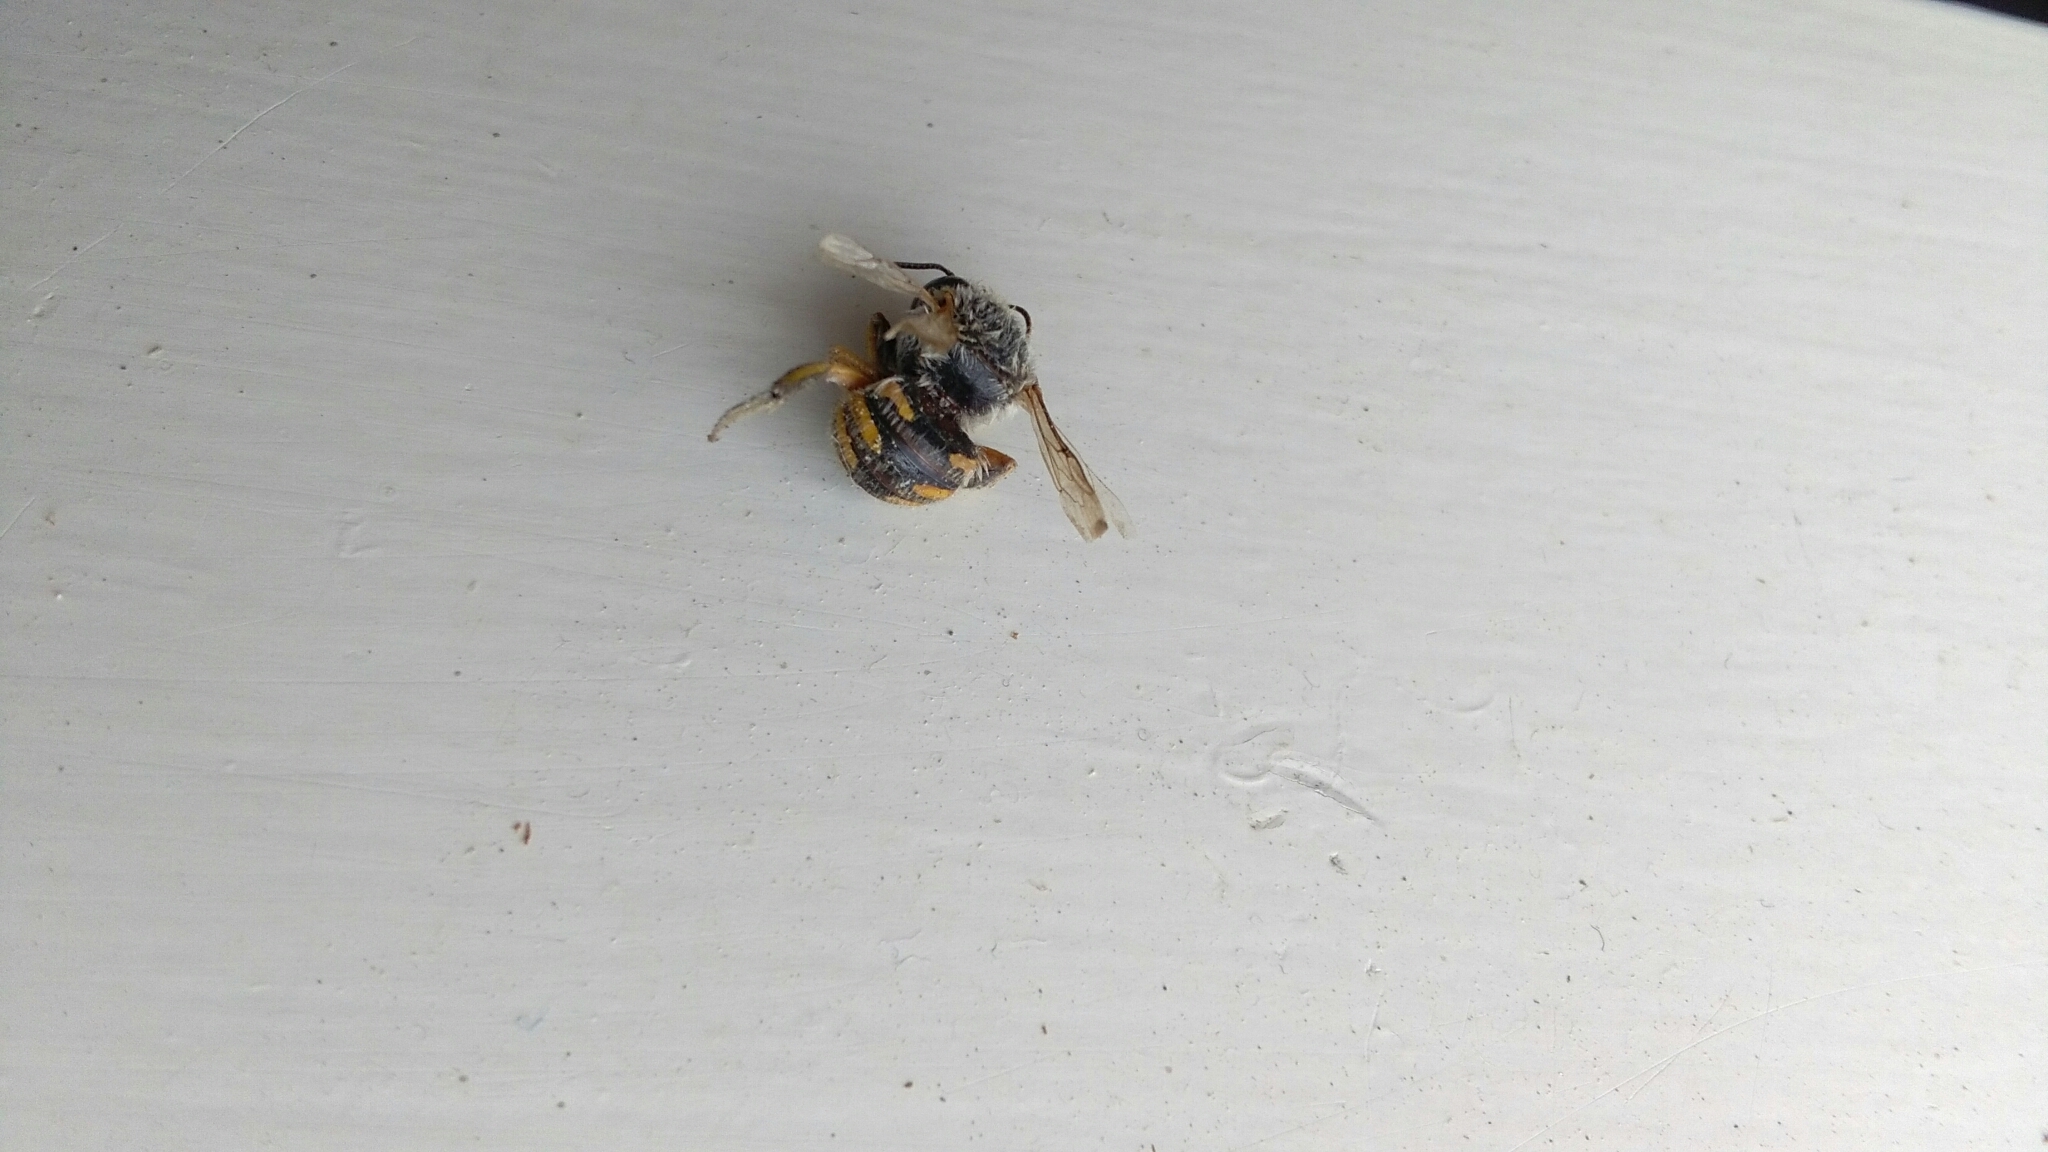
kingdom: Animalia
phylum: Arthropoda
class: Insecta
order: Hymenoptera
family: Megachilidae
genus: Anthidium
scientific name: Anthidium manicatum
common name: Wool carder bee
